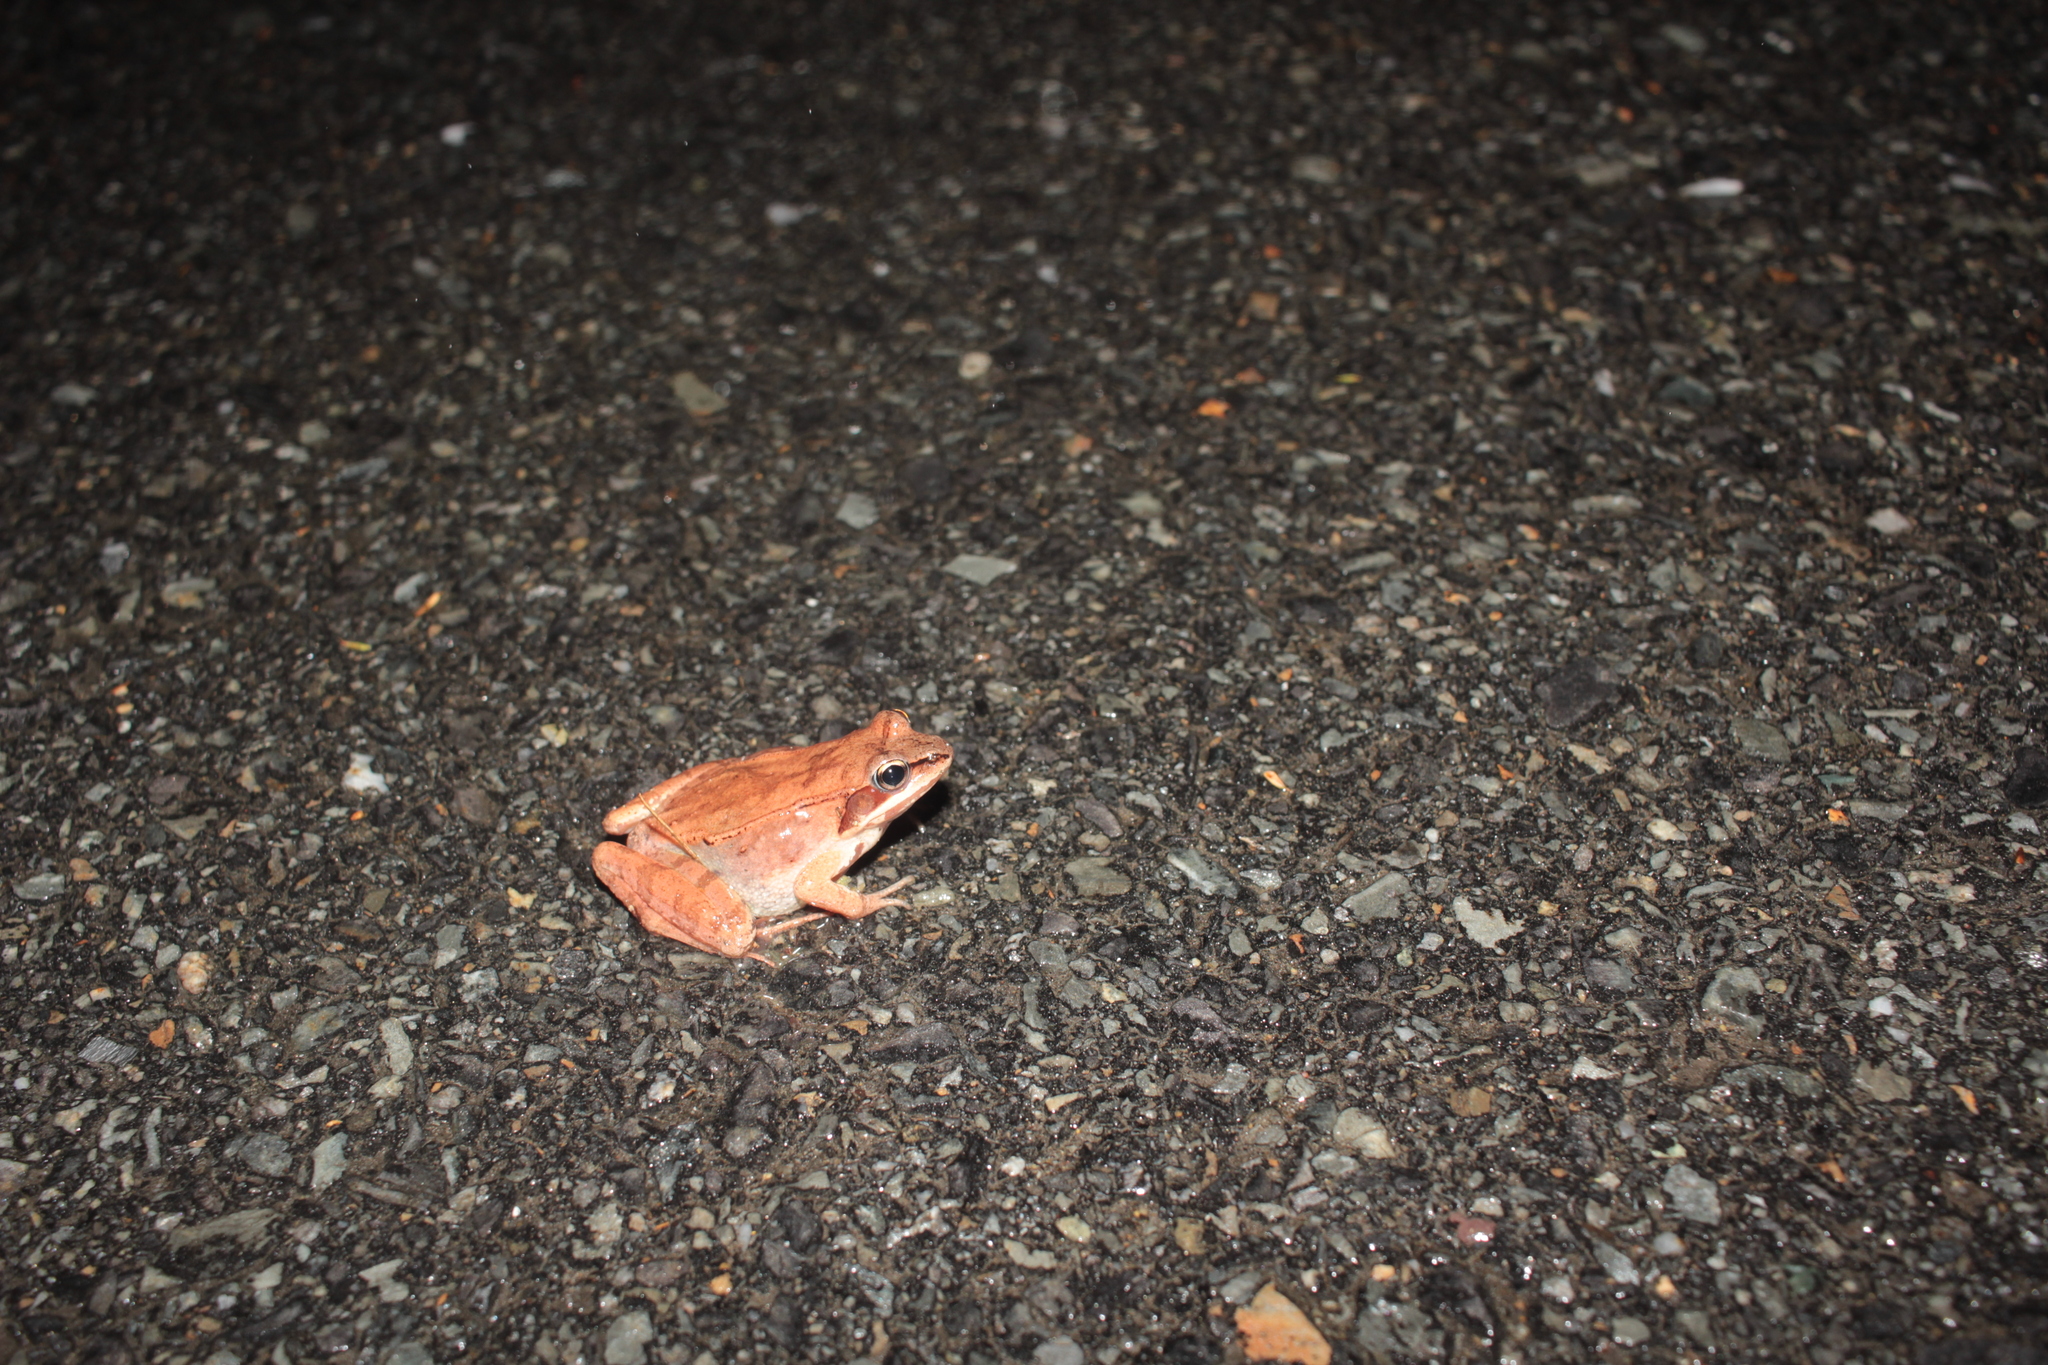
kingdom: Animalia
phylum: Chordata
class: Amphibia
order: Anura
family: Ranidae
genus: Lithobates
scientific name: Lithobates sylvaticus
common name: Wood frog
